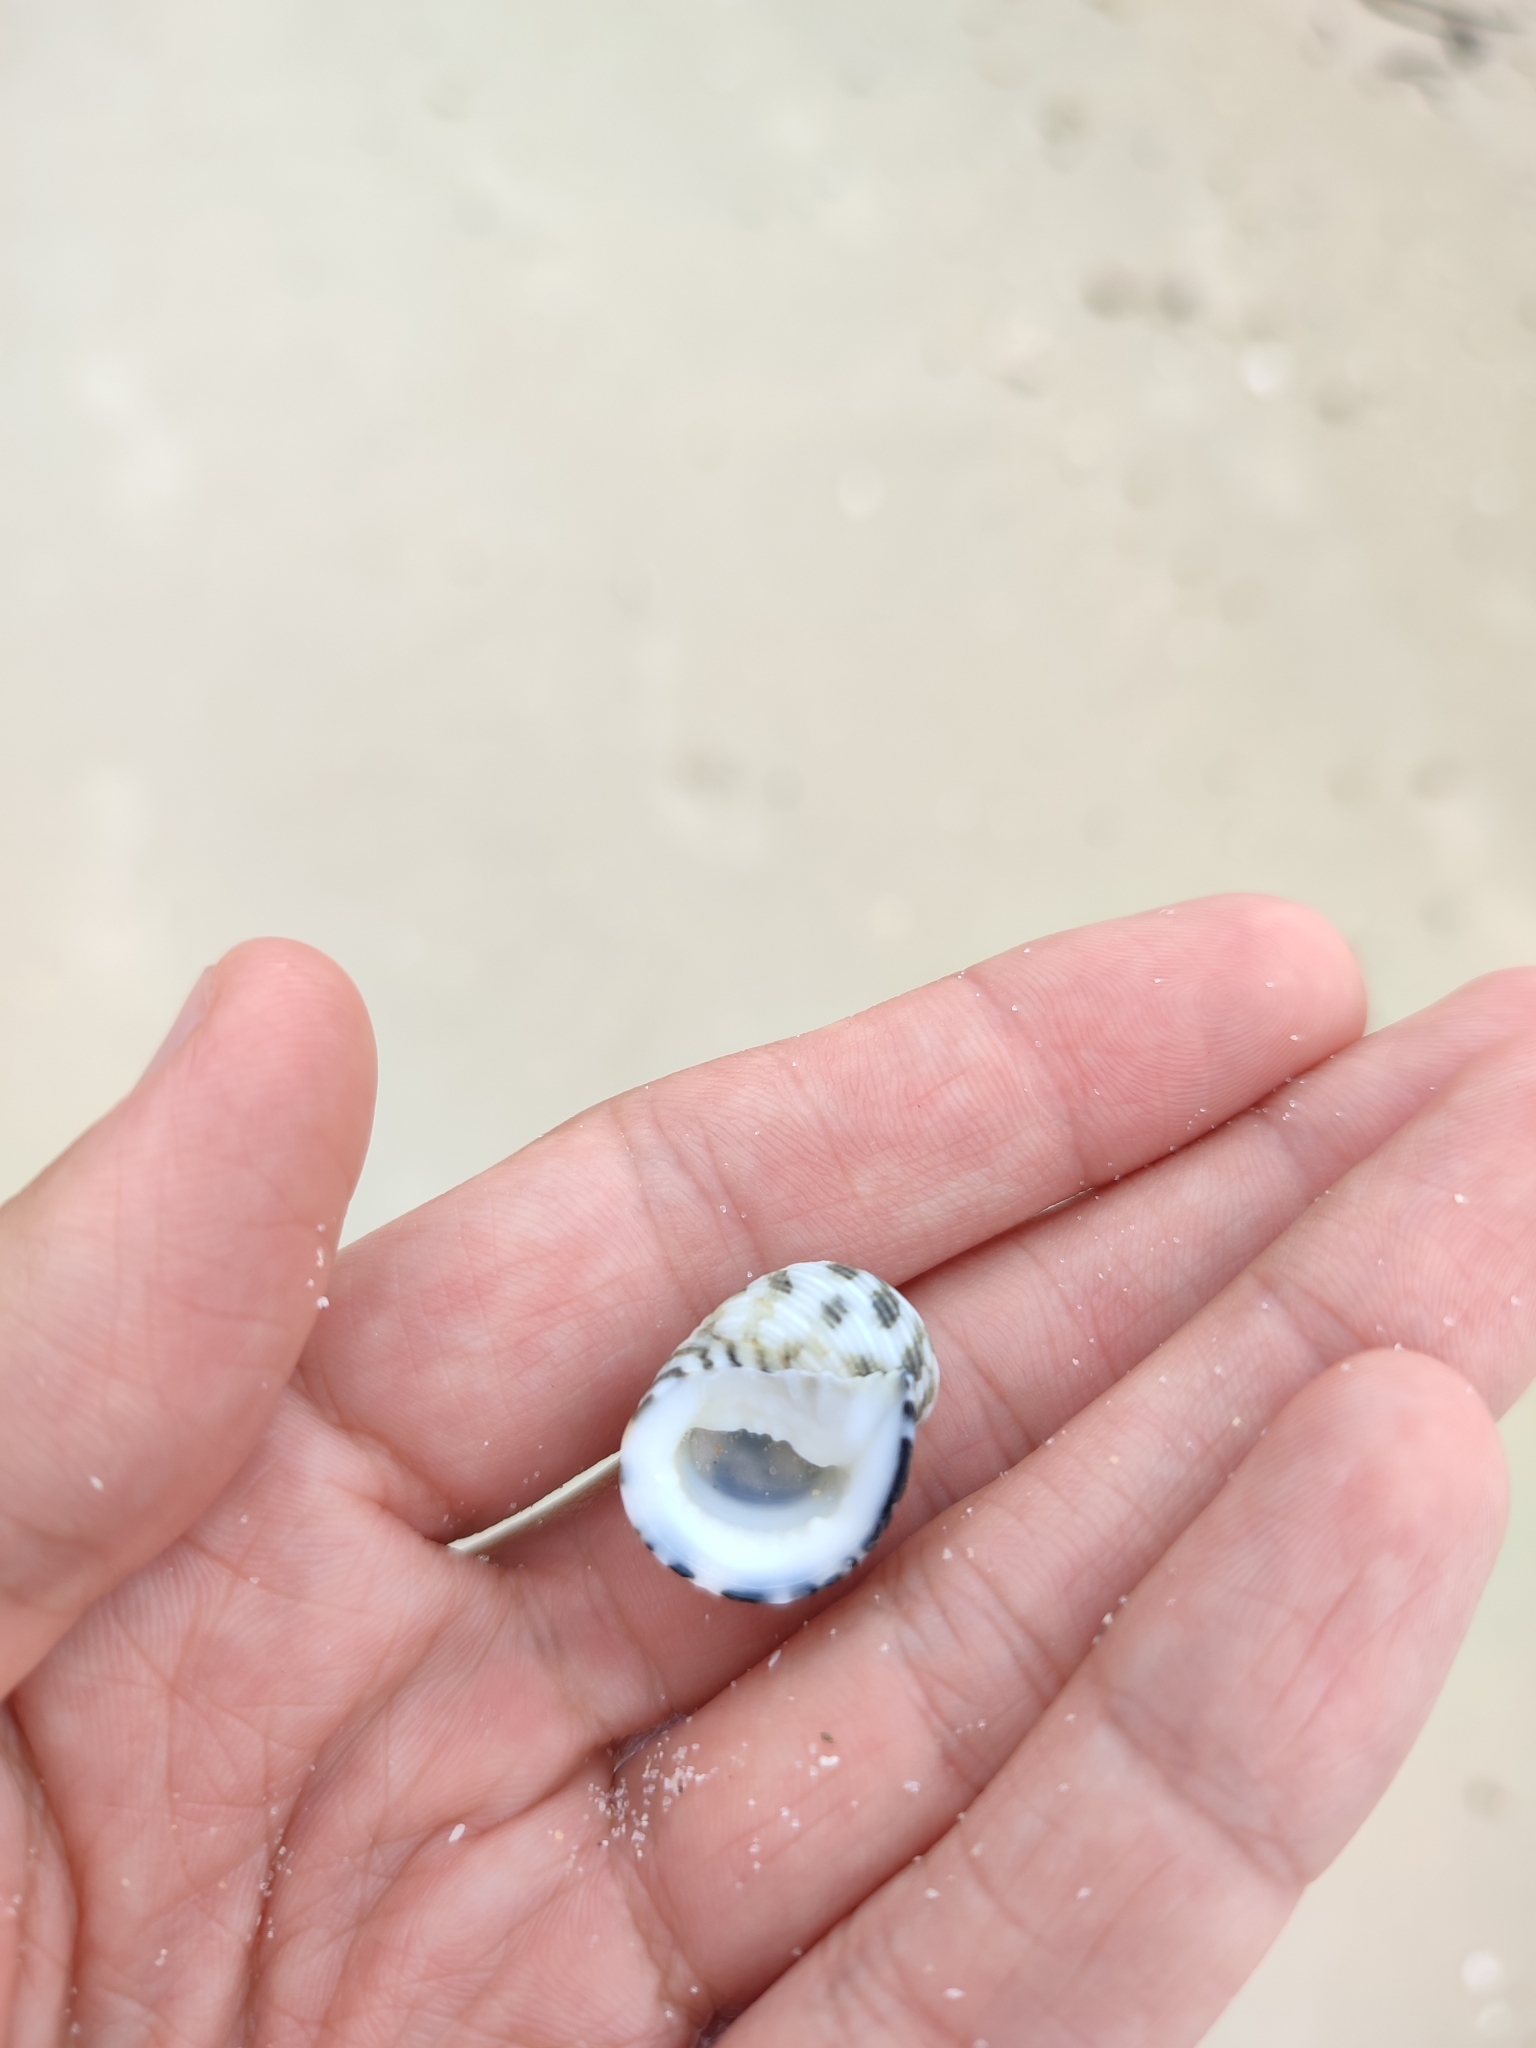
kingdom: Animalia
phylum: Mollusca
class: Gastropoda
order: Cycloneritida
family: Neritidae
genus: Nerita
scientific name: Nerita oryzarum
